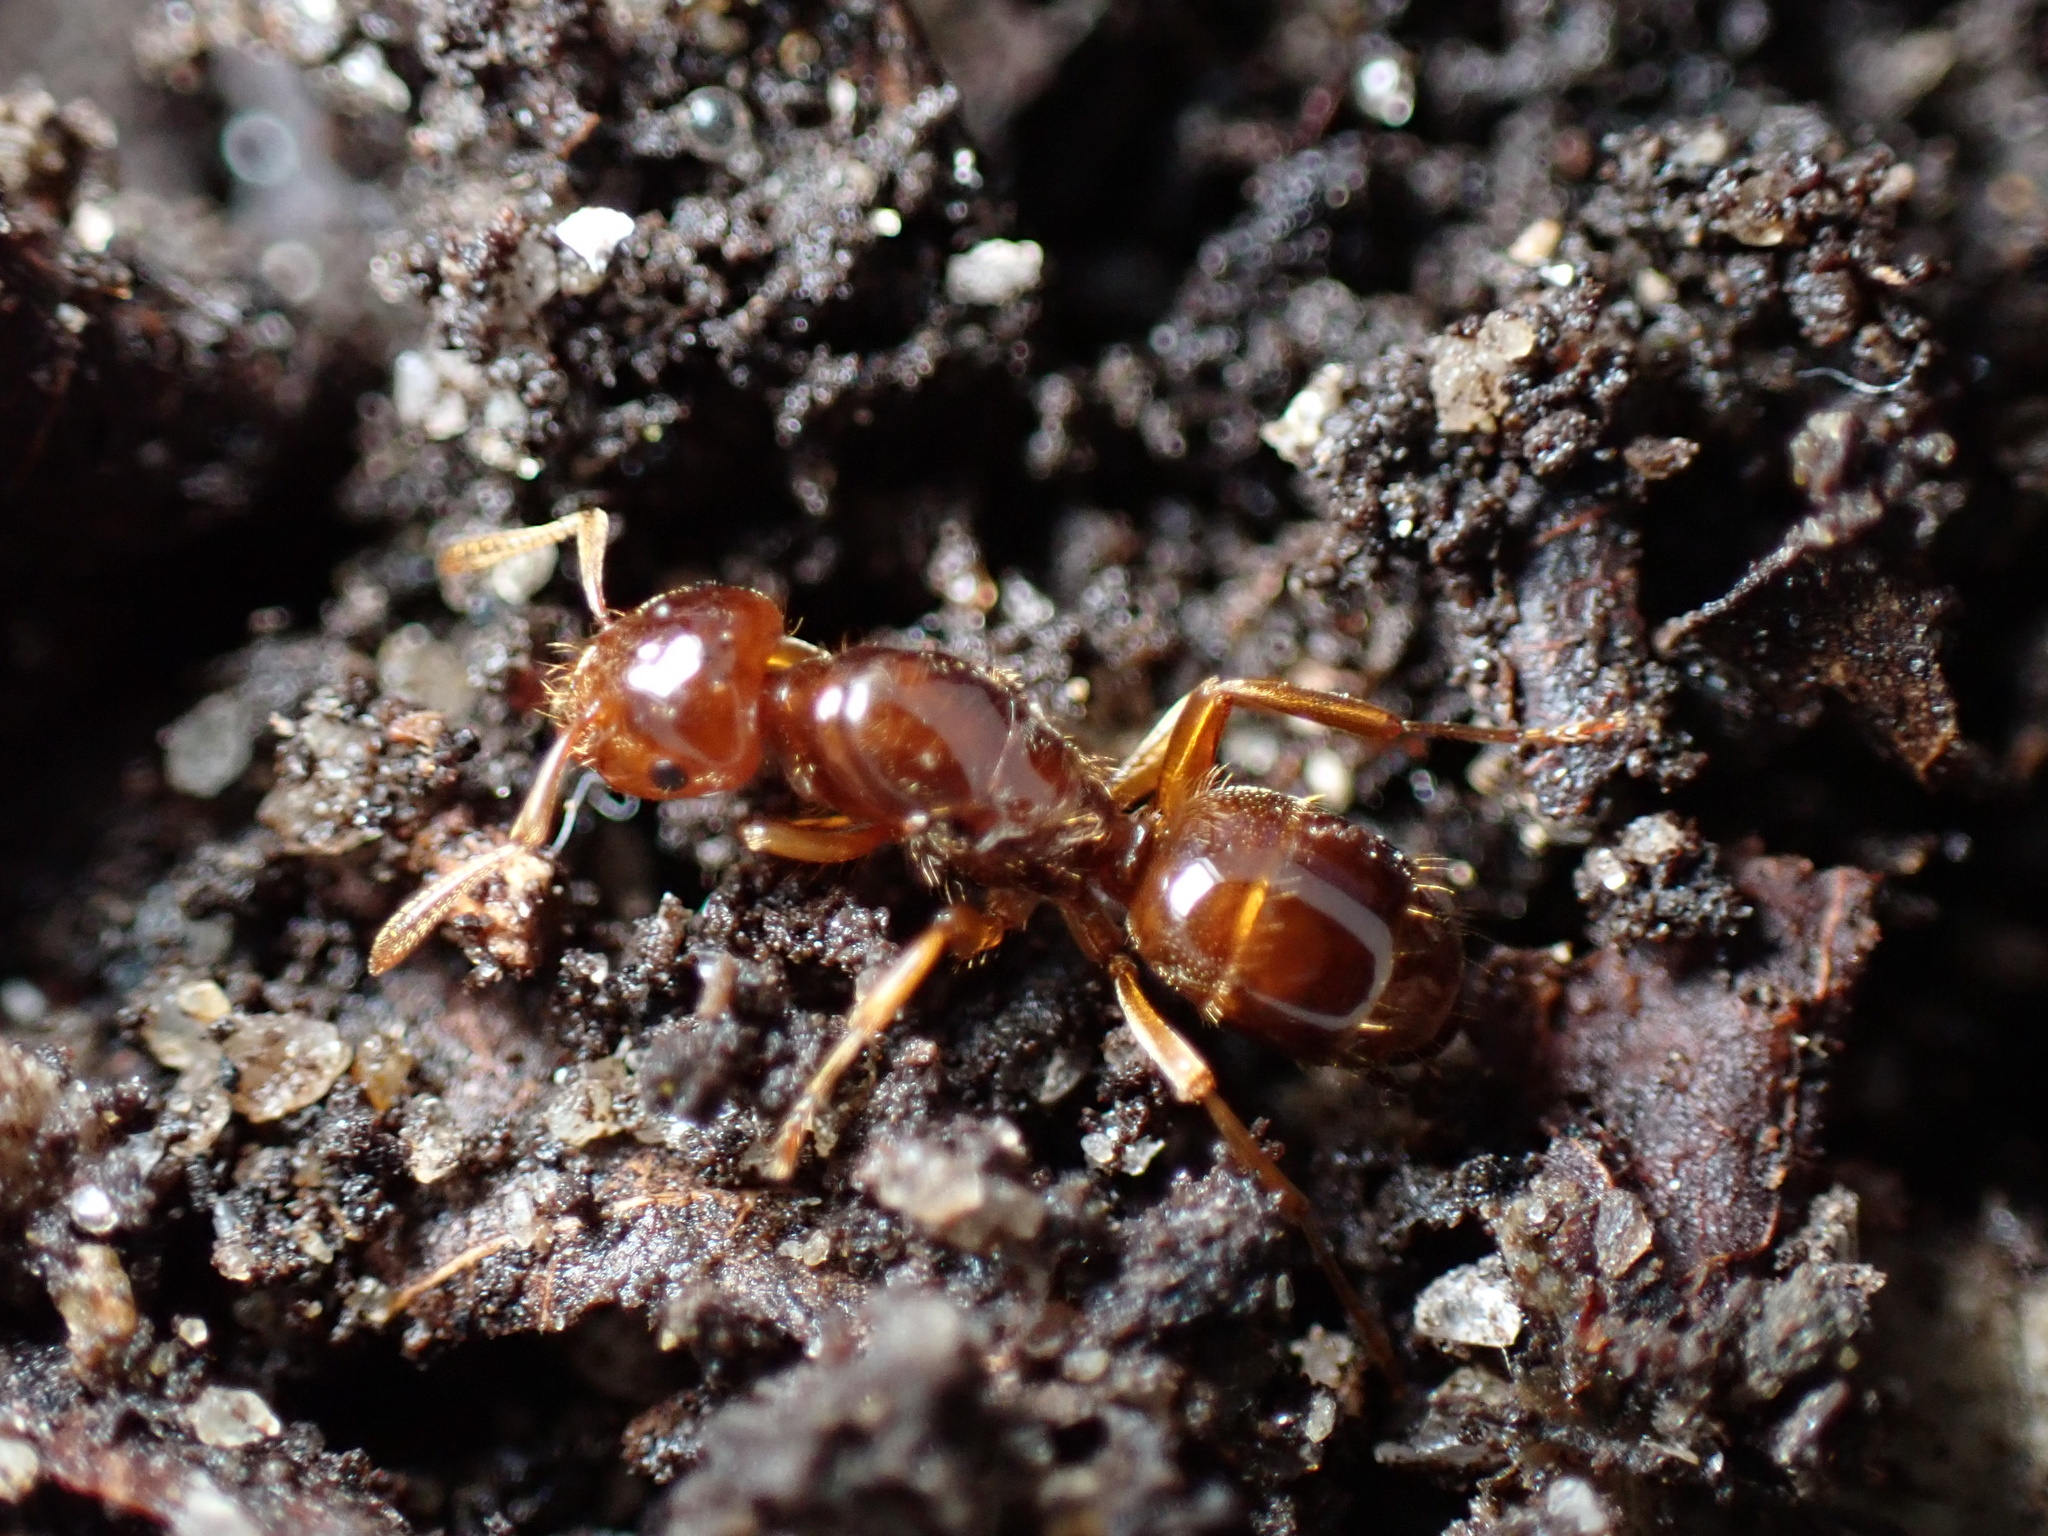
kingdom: Animalia
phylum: Arthropoda
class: Insecta
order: Hymenoptera
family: Formicidae
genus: Lasius
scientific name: Lasius claviger
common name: Common citronella ant
